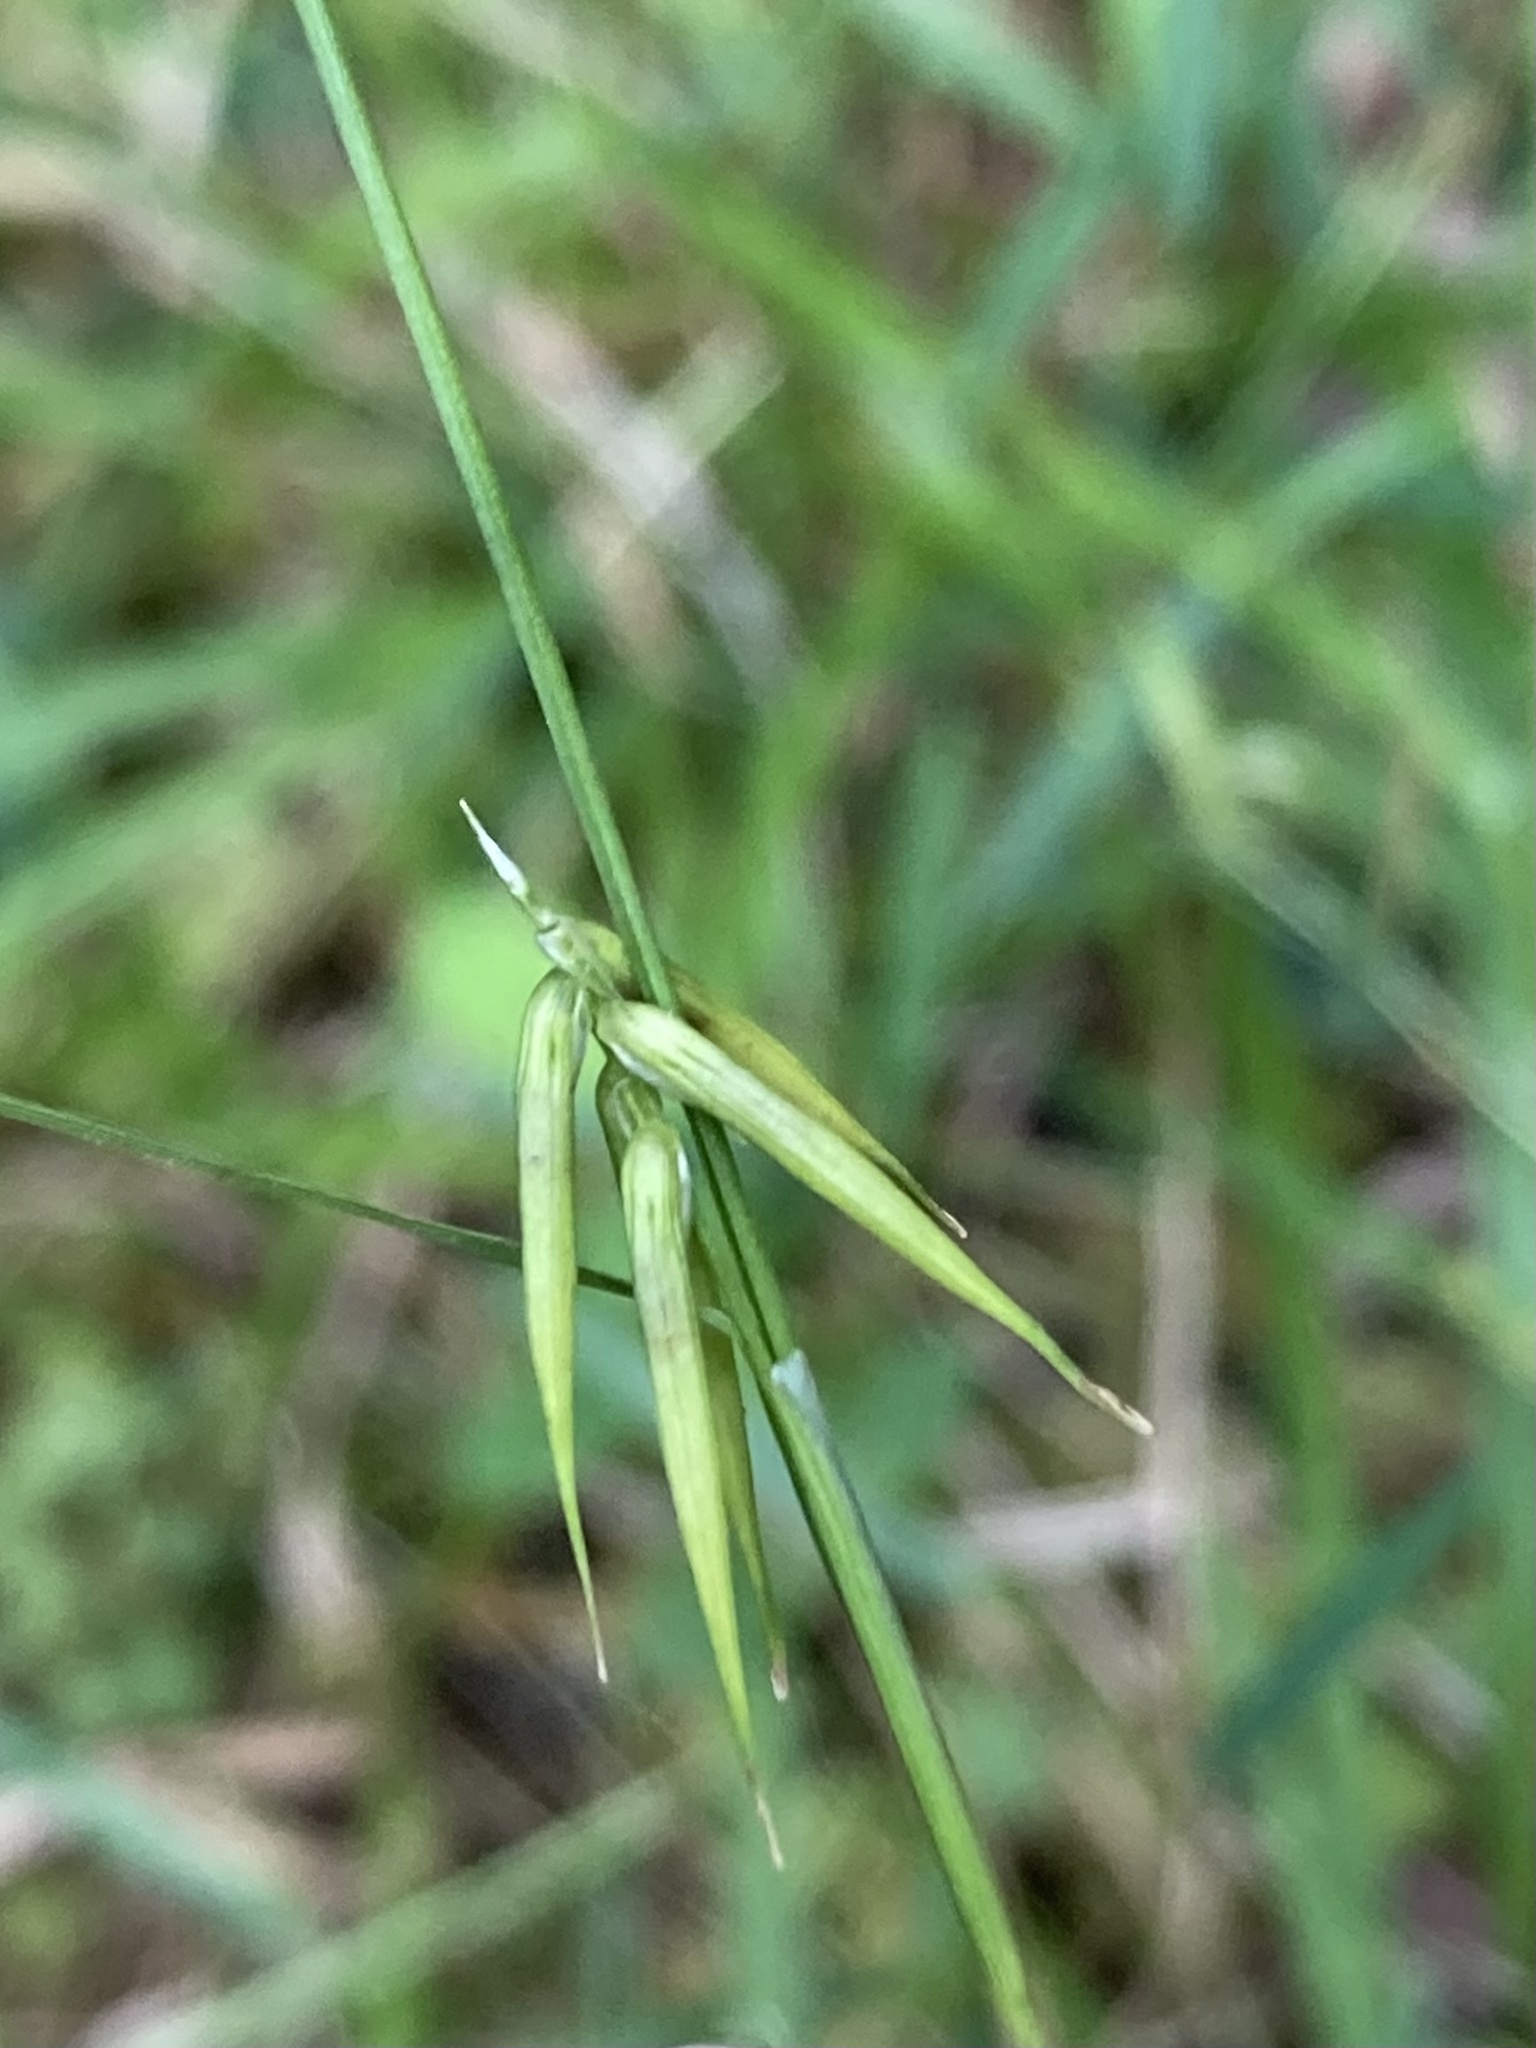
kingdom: Plantae
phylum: Tracheophyta
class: Liliopsida
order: Poales
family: Cyperaceae
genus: Carex
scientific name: Carex collinsii
